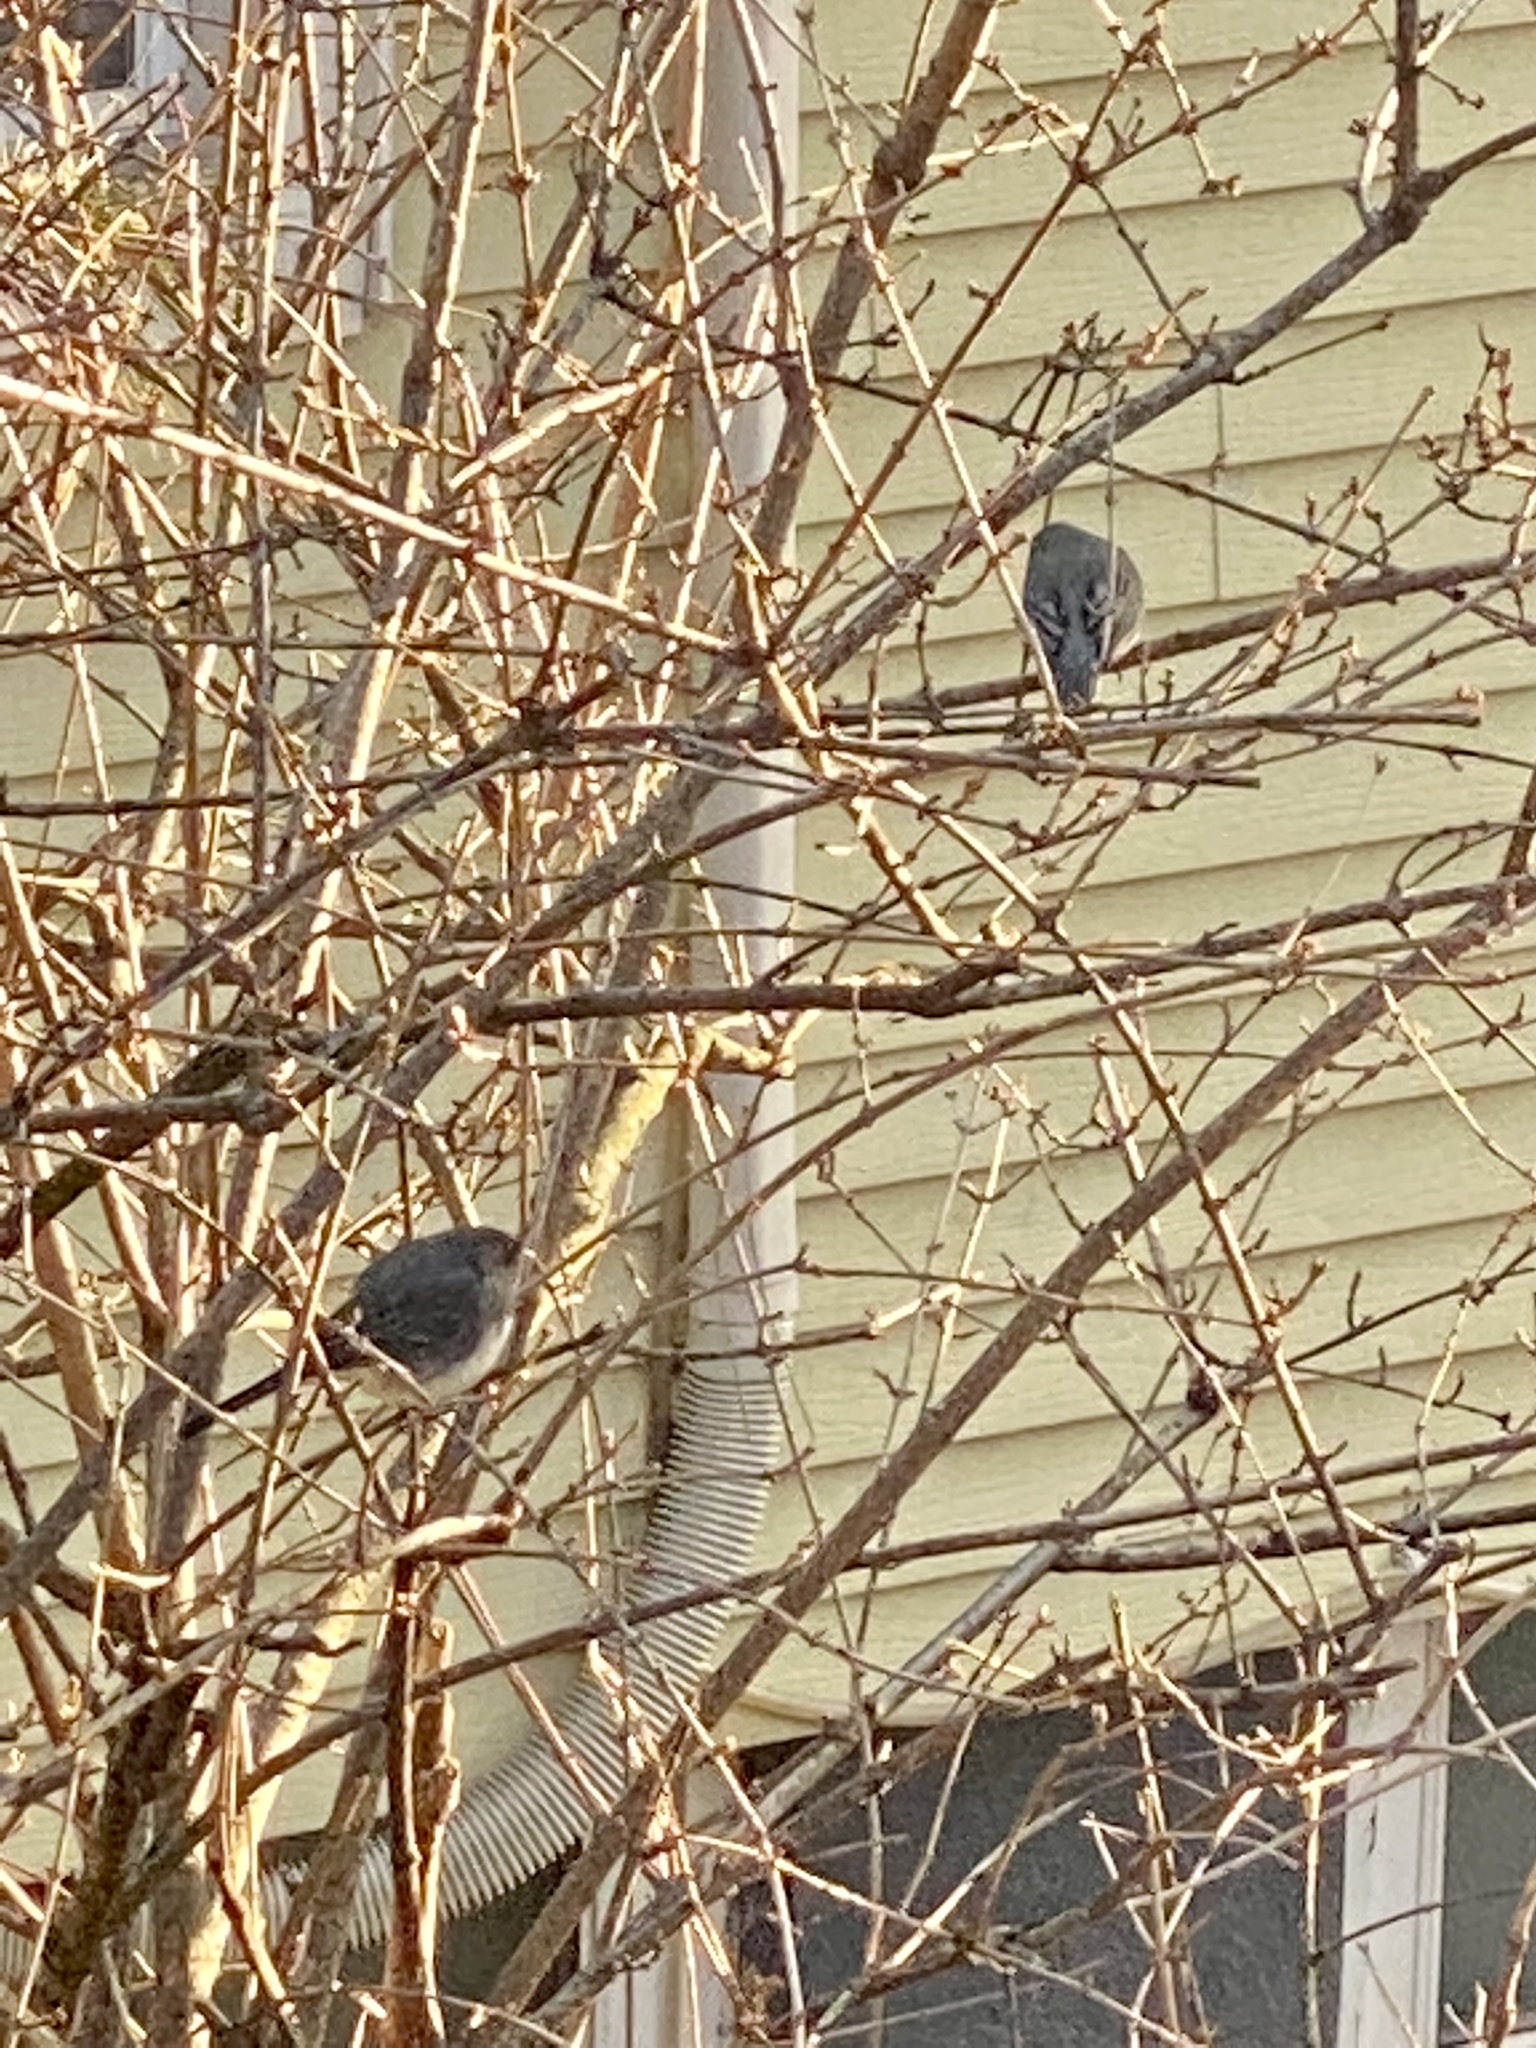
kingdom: Animalia
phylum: Chordata
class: Aves
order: Passeriformes
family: Passerellidae
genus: Junco
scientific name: Junco hyemalis
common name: Dark-eyed junco
